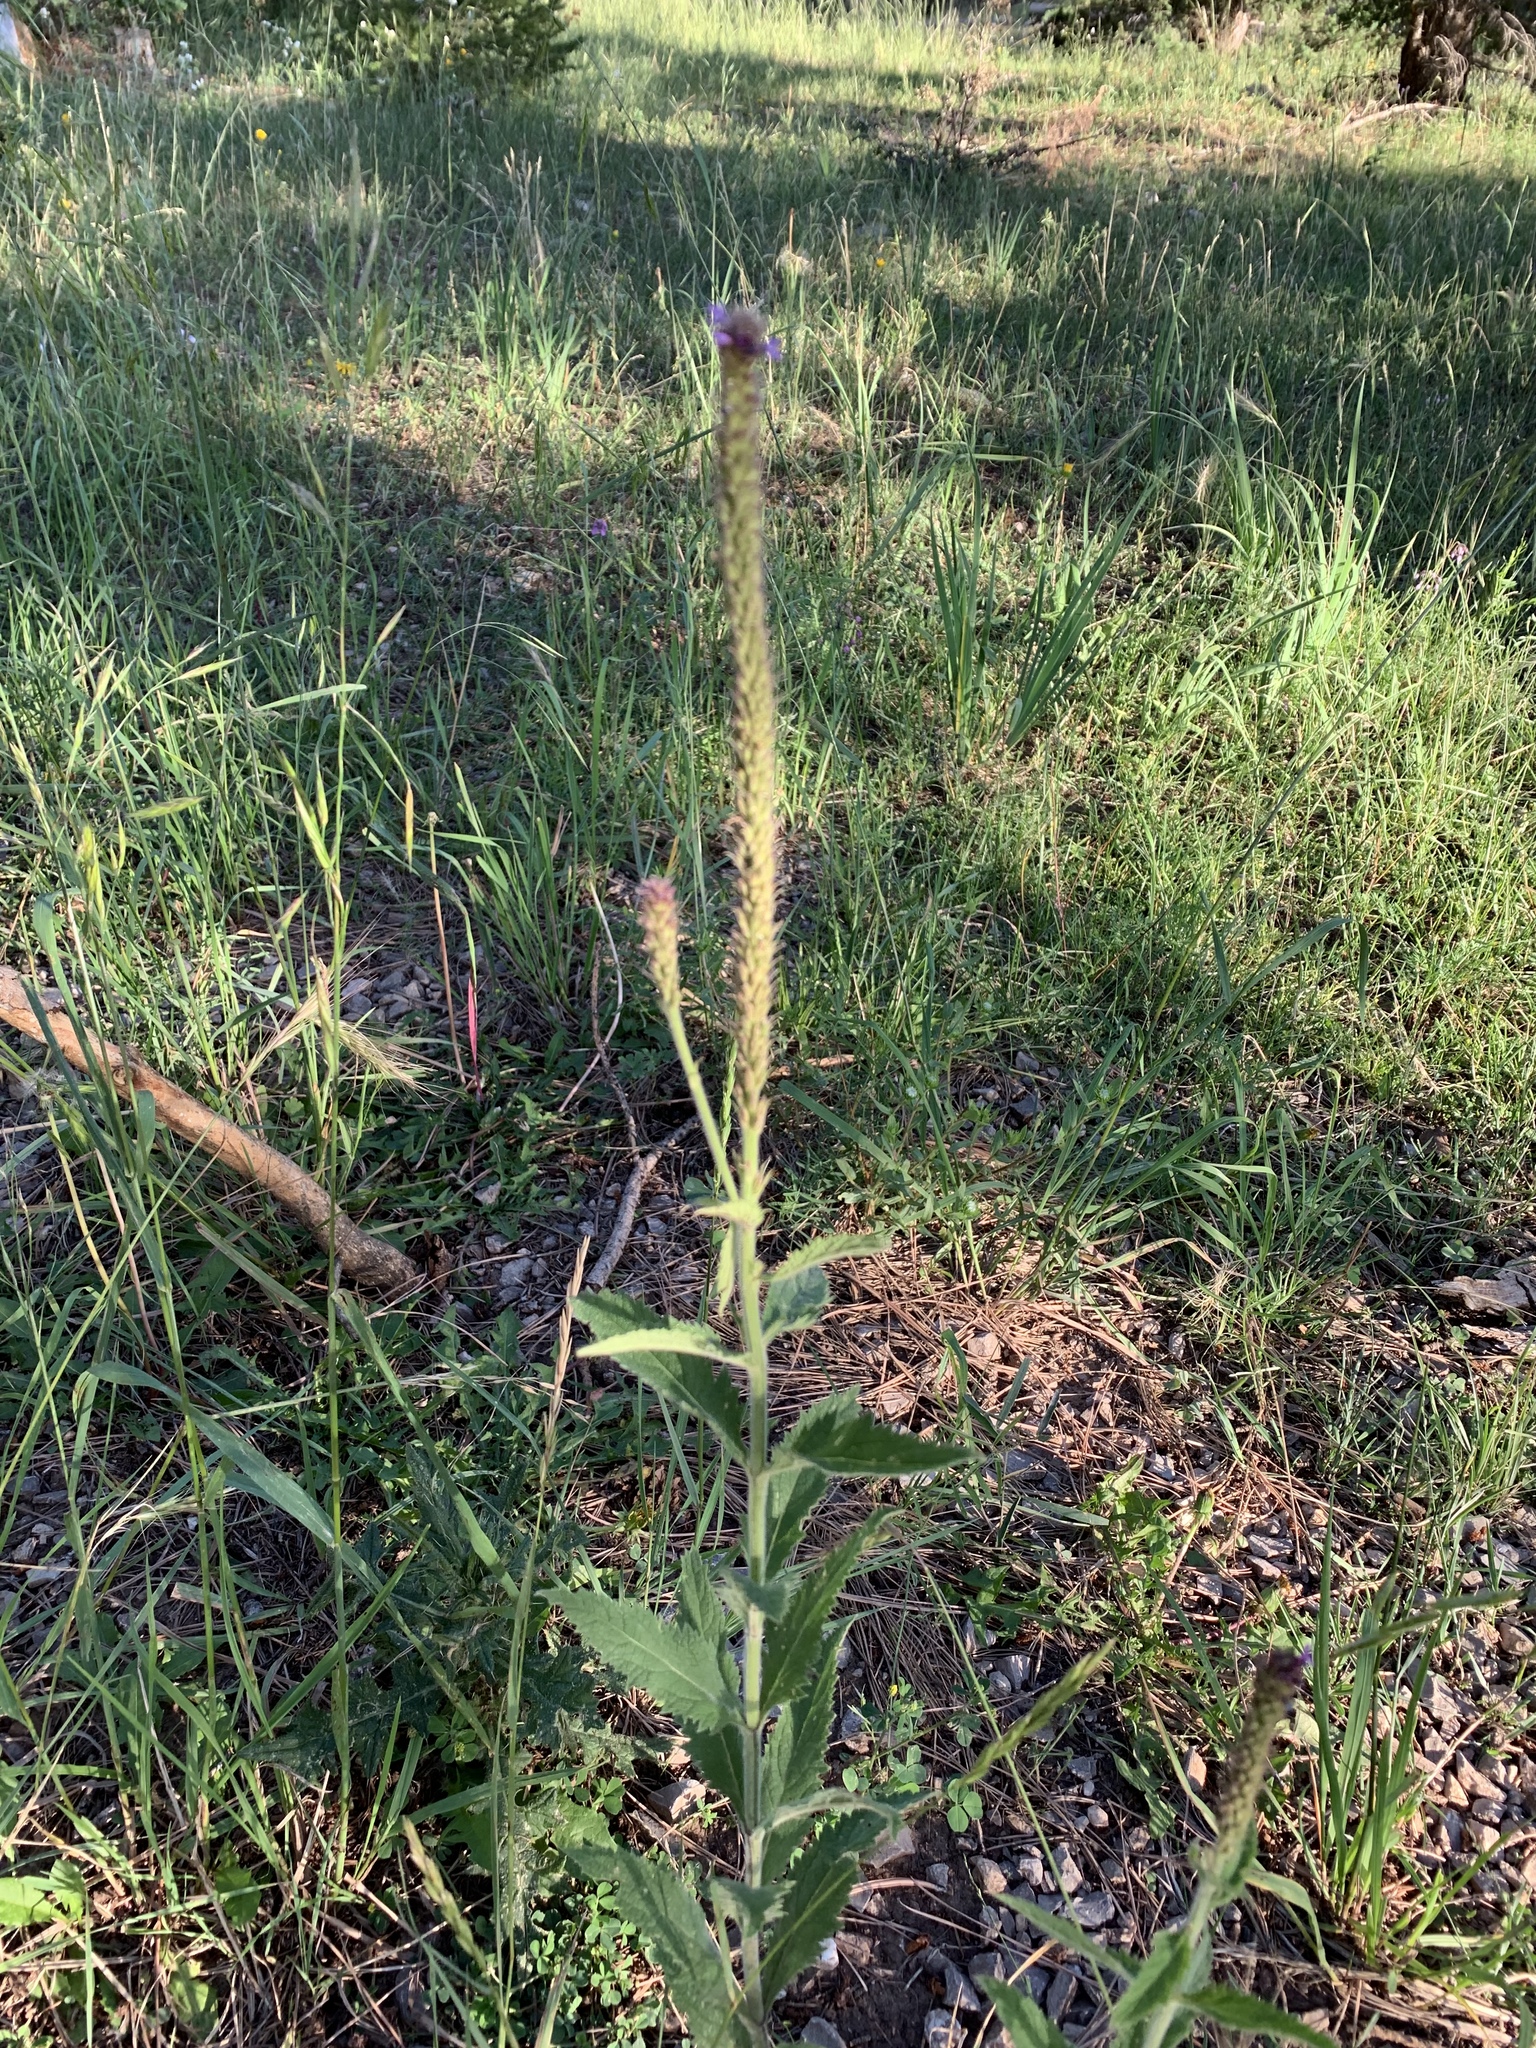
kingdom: Plantae
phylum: Tracheophyta
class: Magnoliopsida
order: Lamiales
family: Verbenaceae
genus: Verbena
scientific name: Verbena macdougalii
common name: New mexico vervain
